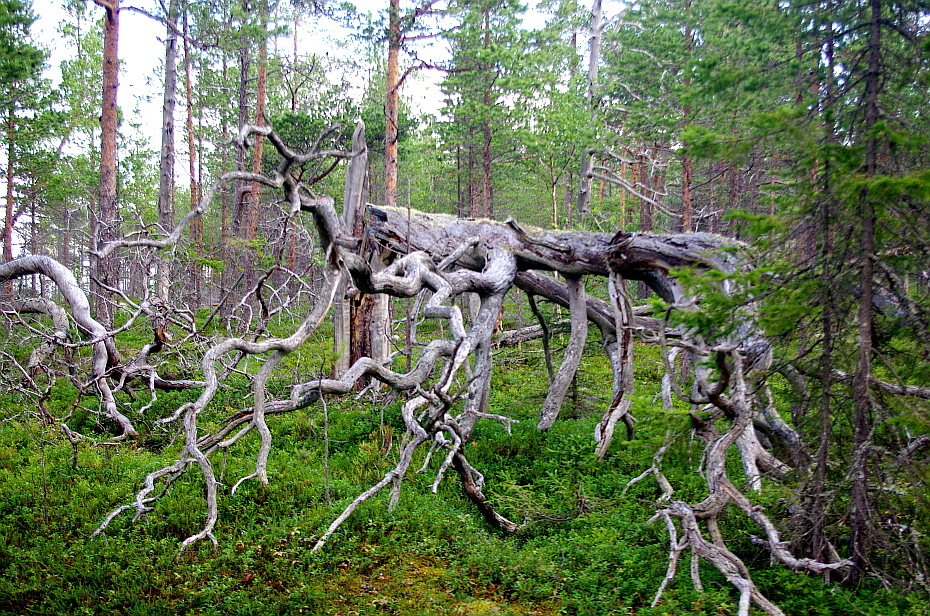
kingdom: Plantae
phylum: Tracheophyta
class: Pinopsida
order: Pinales
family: Pinaceae
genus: Pinus
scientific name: Pinus sylvestris
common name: Scots pine
